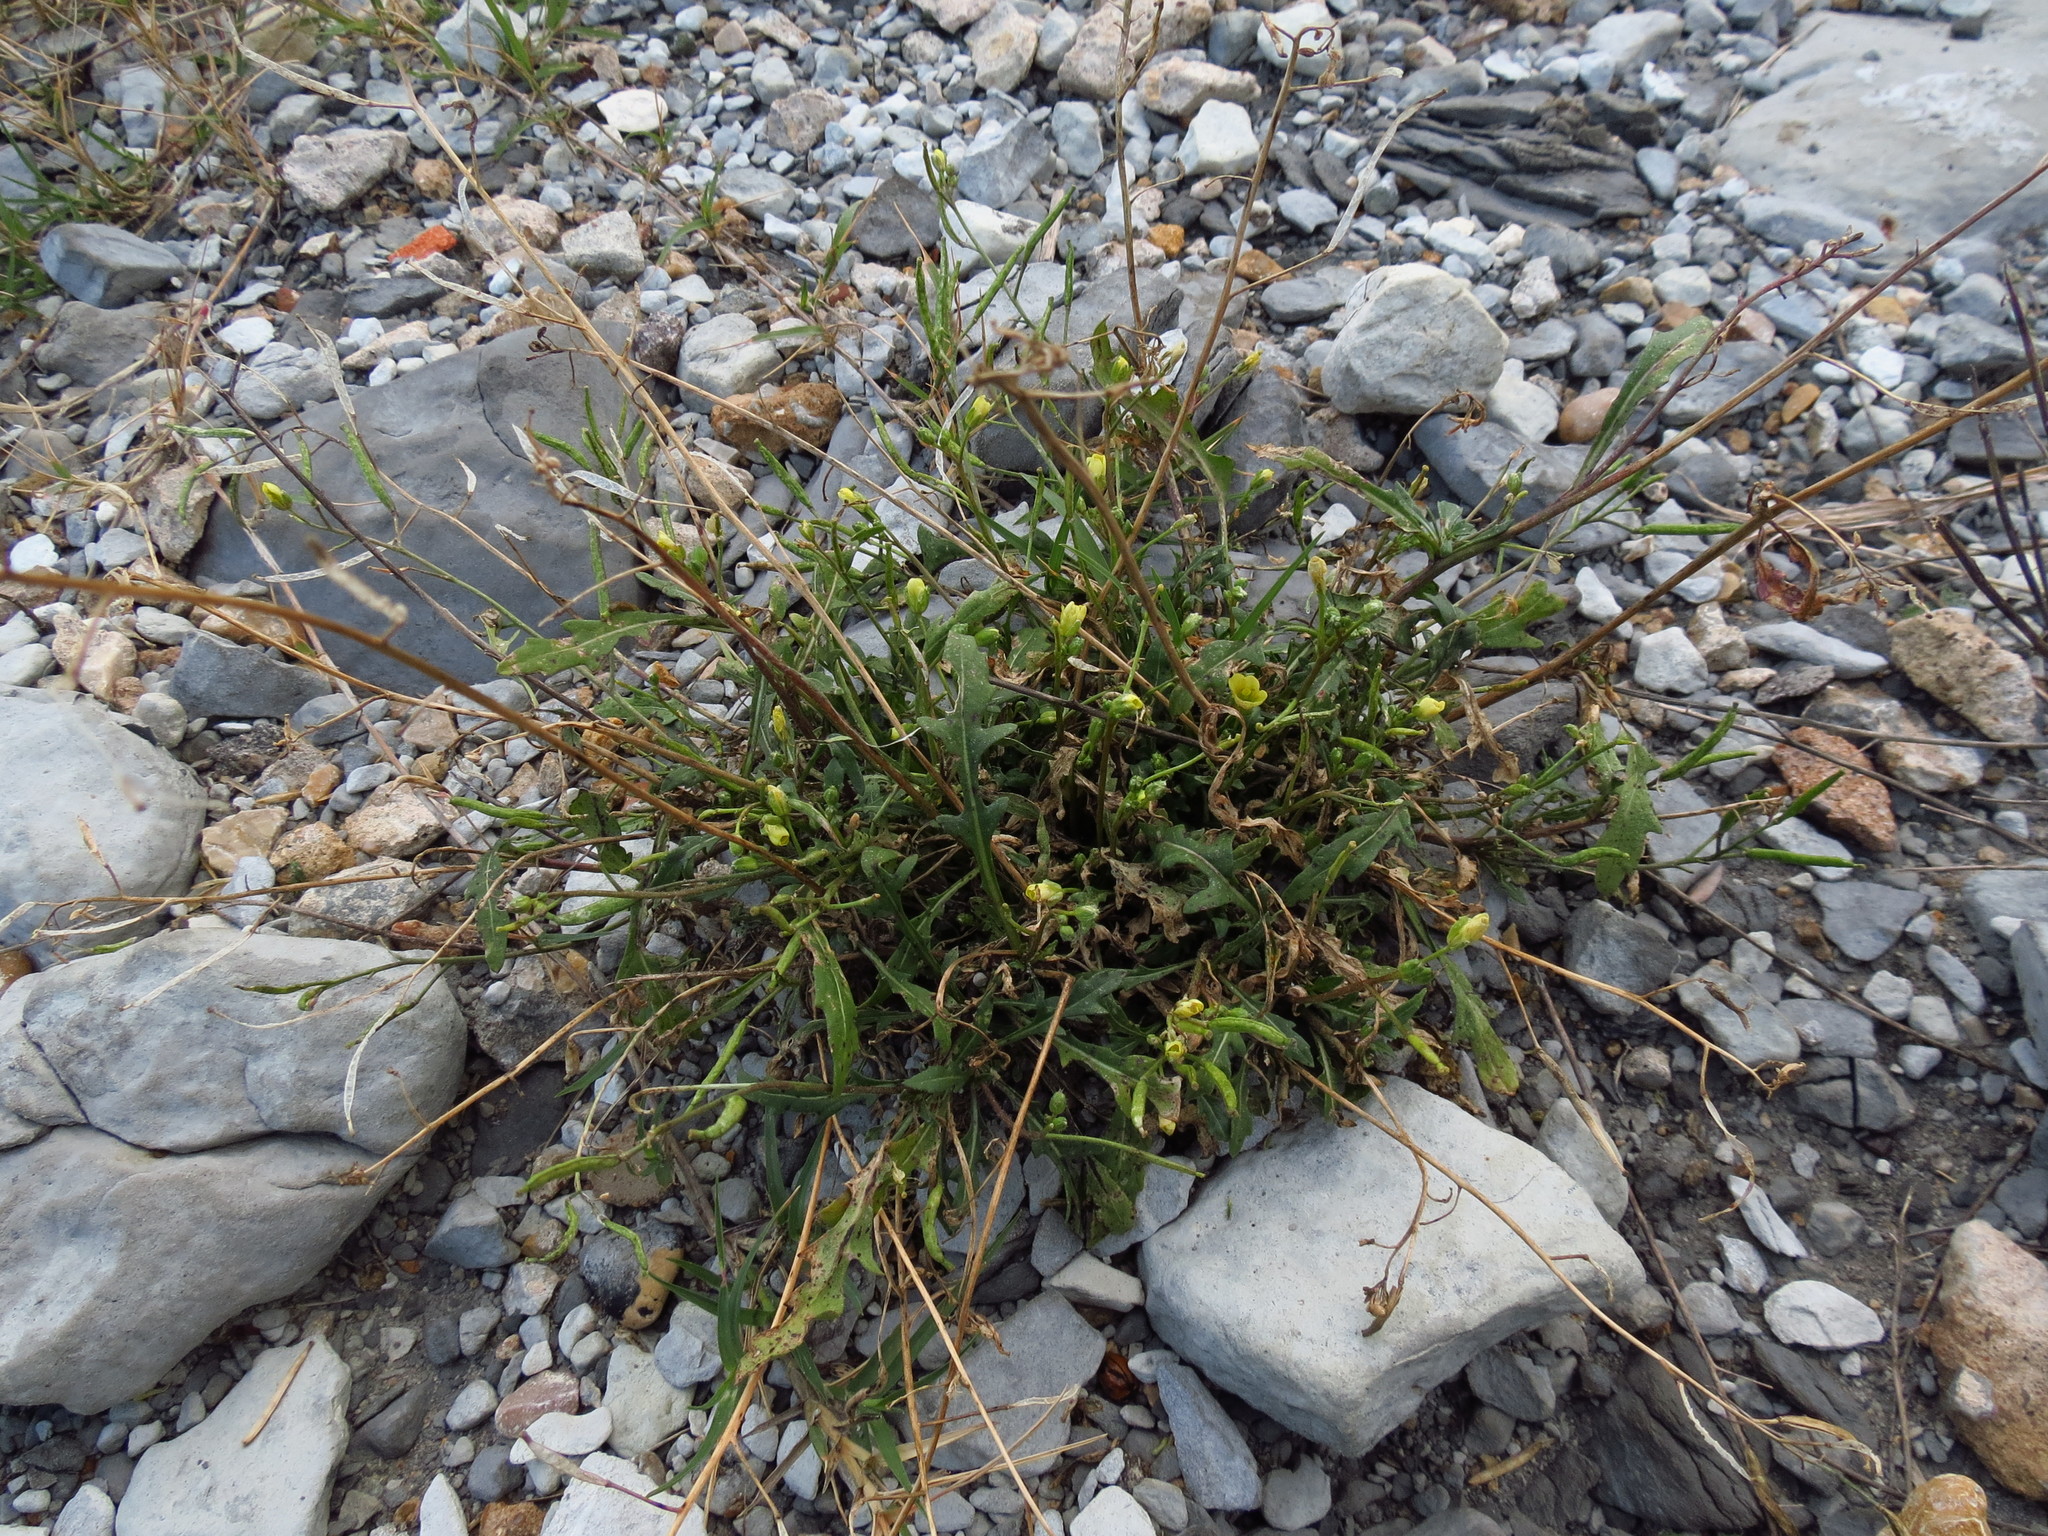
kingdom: Plantae
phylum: Tracheophyta
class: Magnoliopsida
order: Brassicales
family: Brassicaceae
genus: Diplotaxis
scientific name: Diplotaxis muralis
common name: Annual wall-rocket
